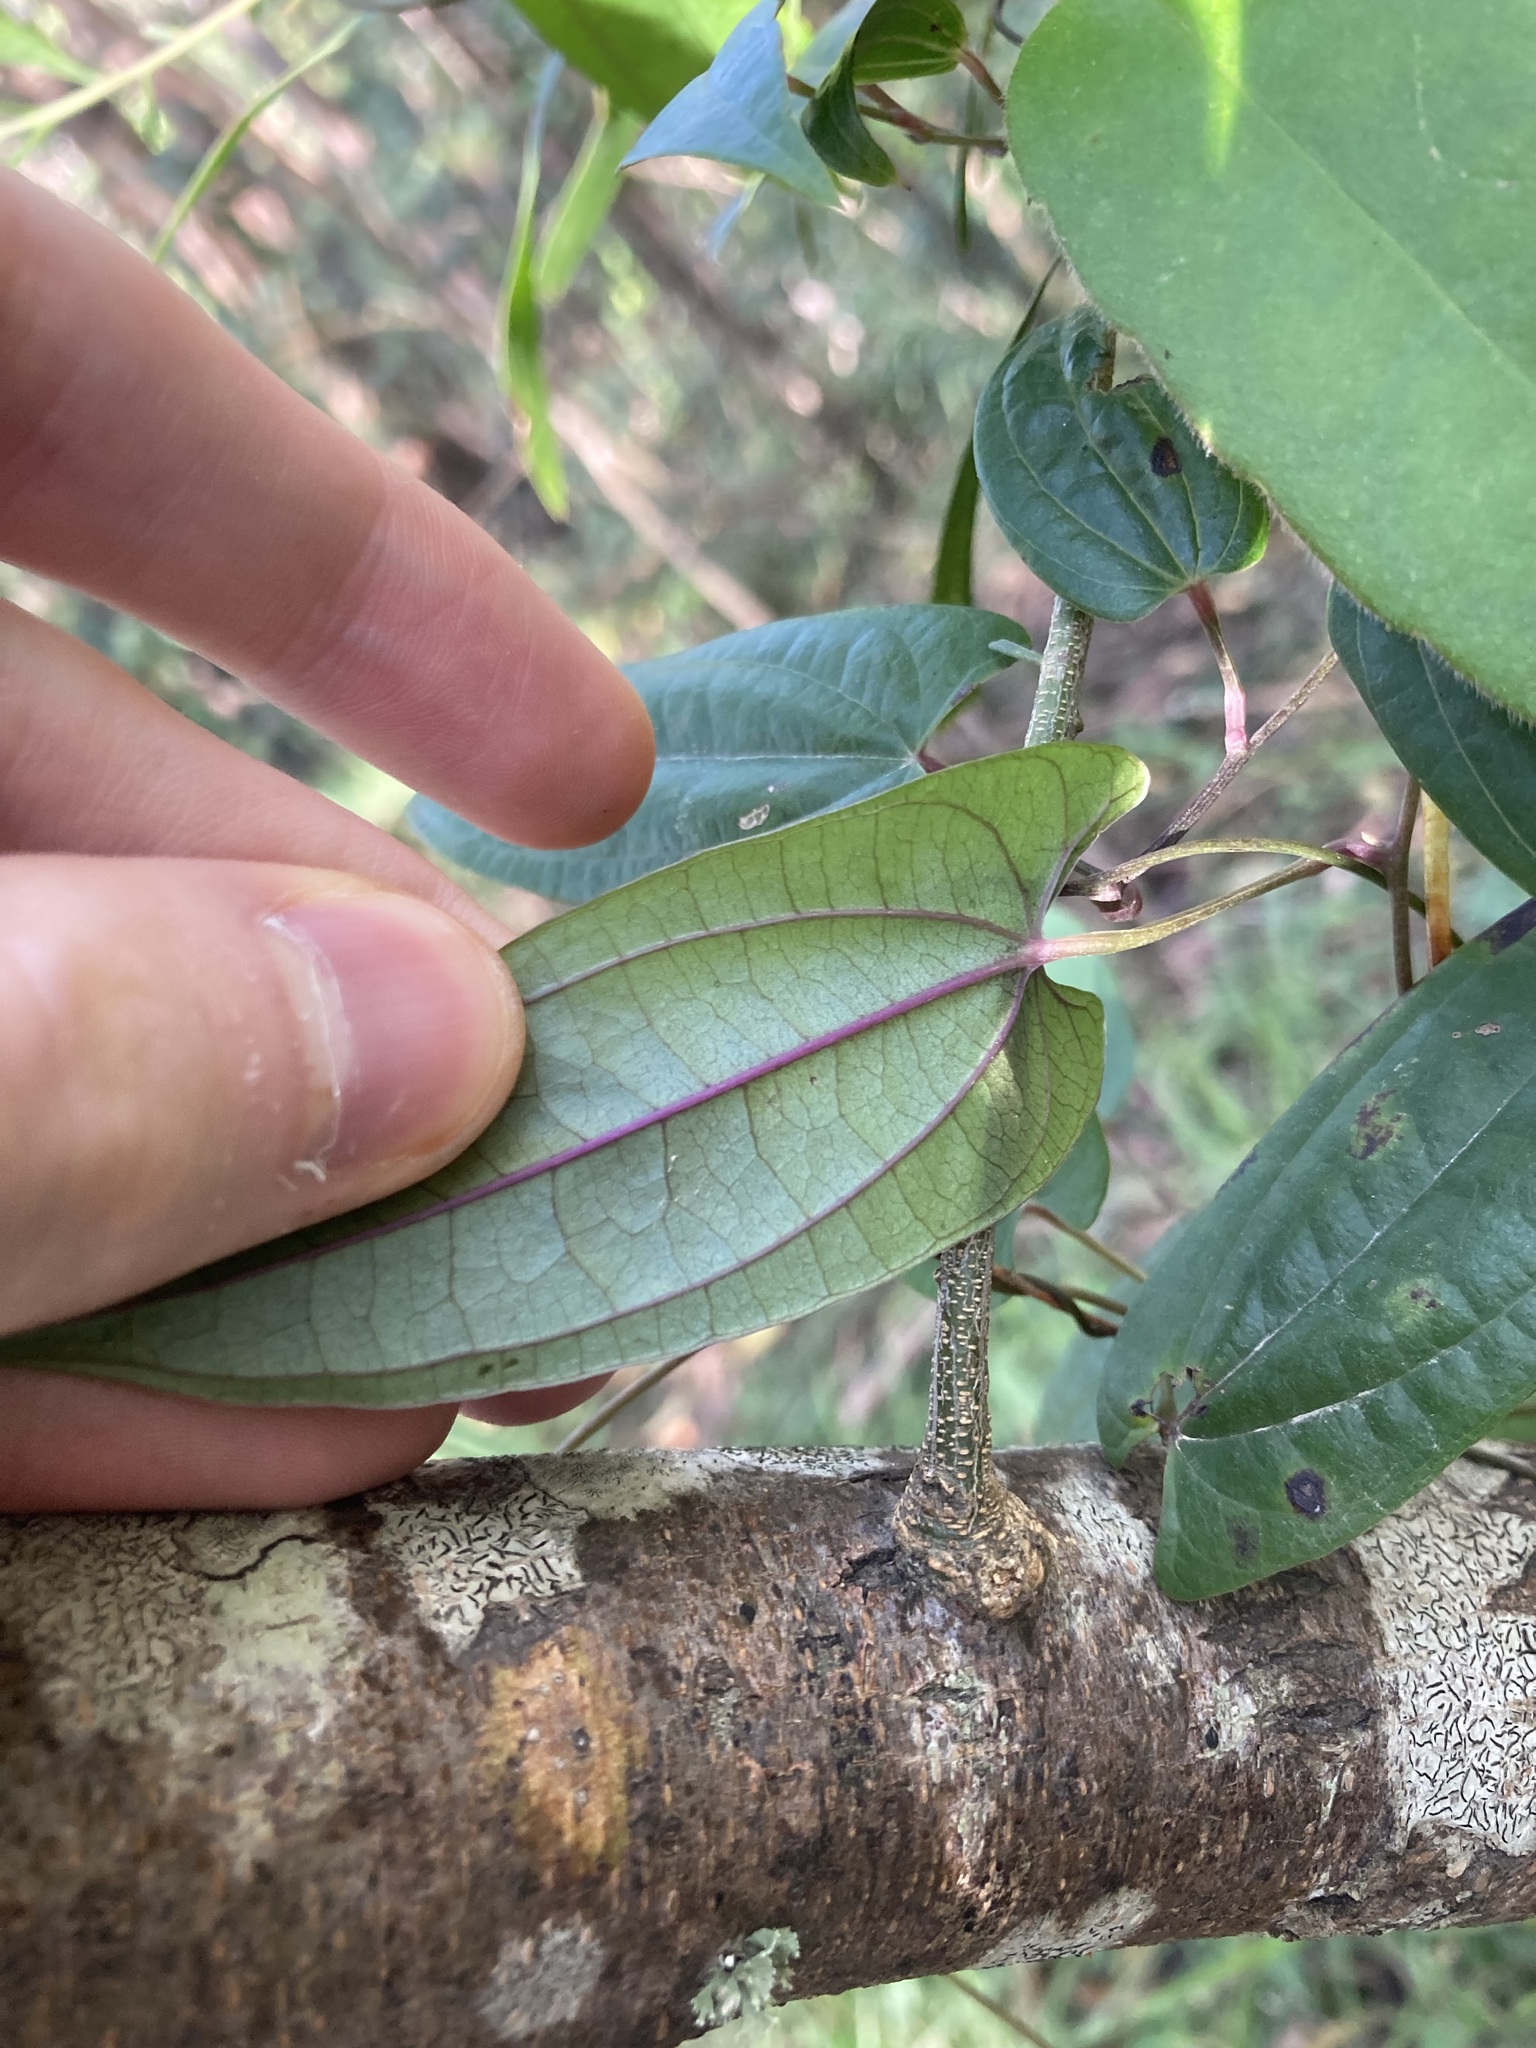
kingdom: Plantae
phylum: Tracheophyta
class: Liliopsida
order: Dioscoreales
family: Dioscoreaceae
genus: Dioscorea
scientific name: Dioscorea transversa
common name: Long yam
